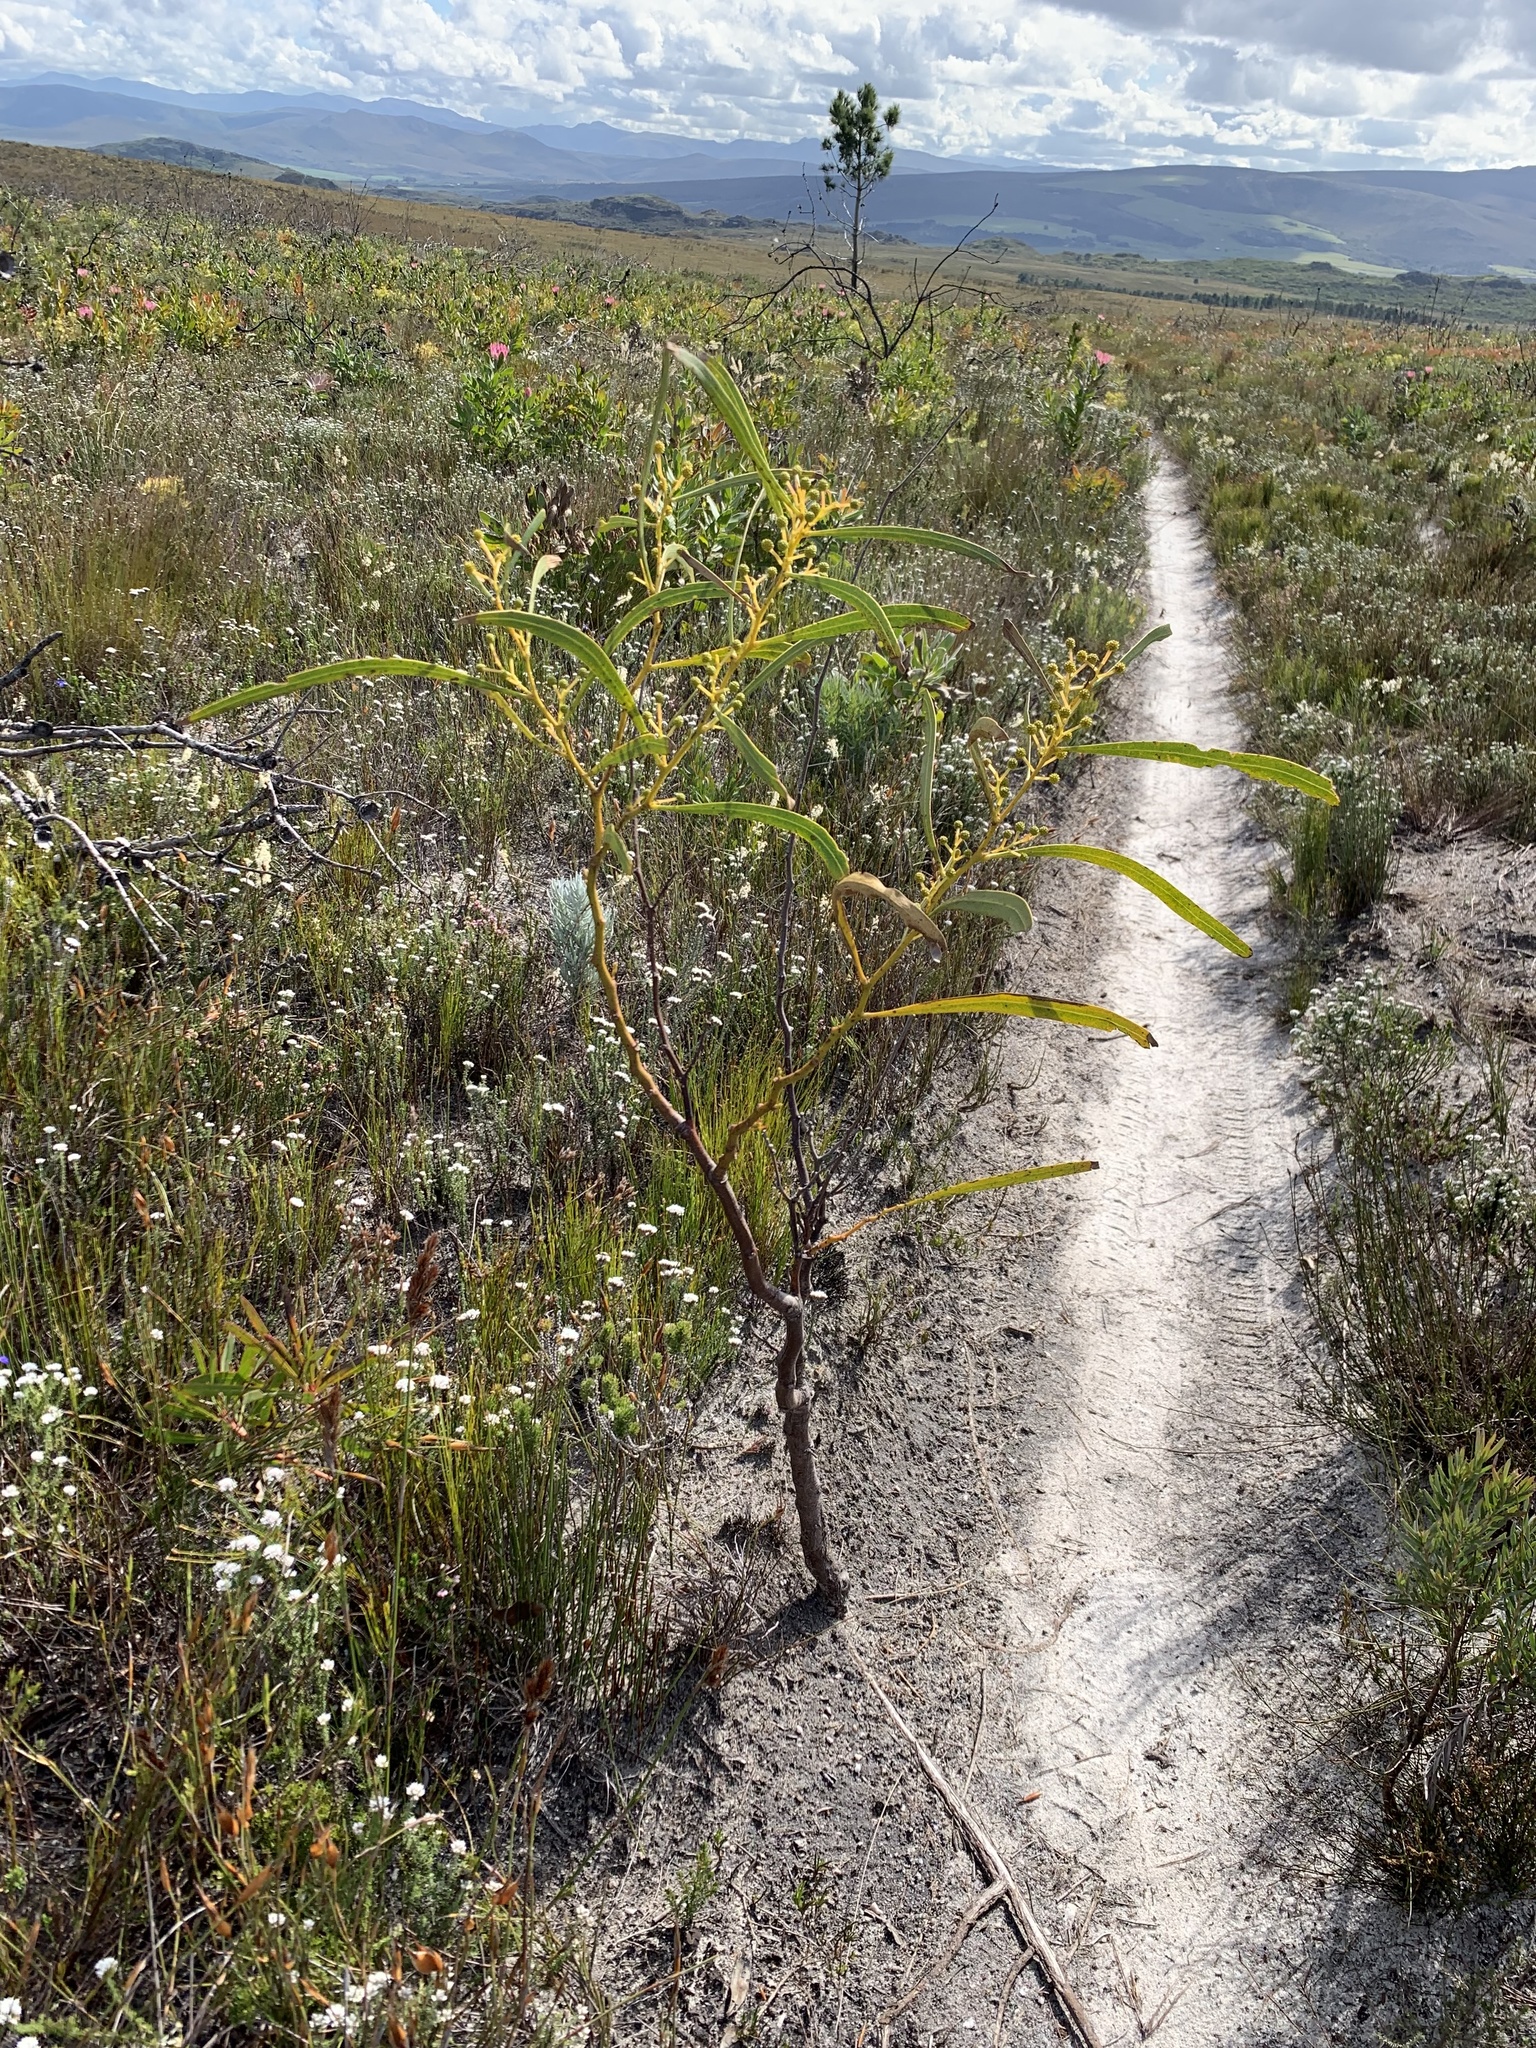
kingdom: Plantae
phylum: Tracheophyta
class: Magnoliopsida
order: Fabales
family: Fabaceae
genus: Acacia
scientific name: Acacia saligna
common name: Orange wattle
